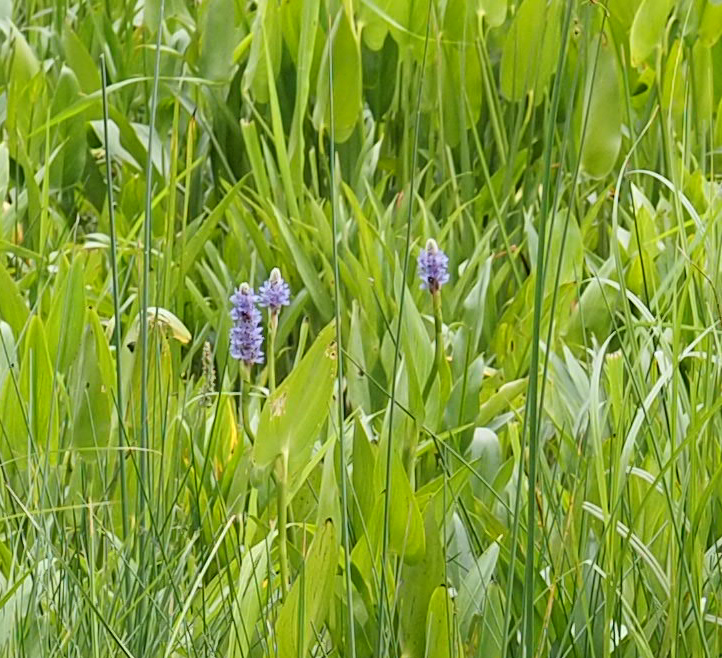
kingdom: Plantae
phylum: Tracheophyta
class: Liliopsida
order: Commelinales
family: Pontederiaceae
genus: Pontederia
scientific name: Pontederia cordata
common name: Pickerelweed
